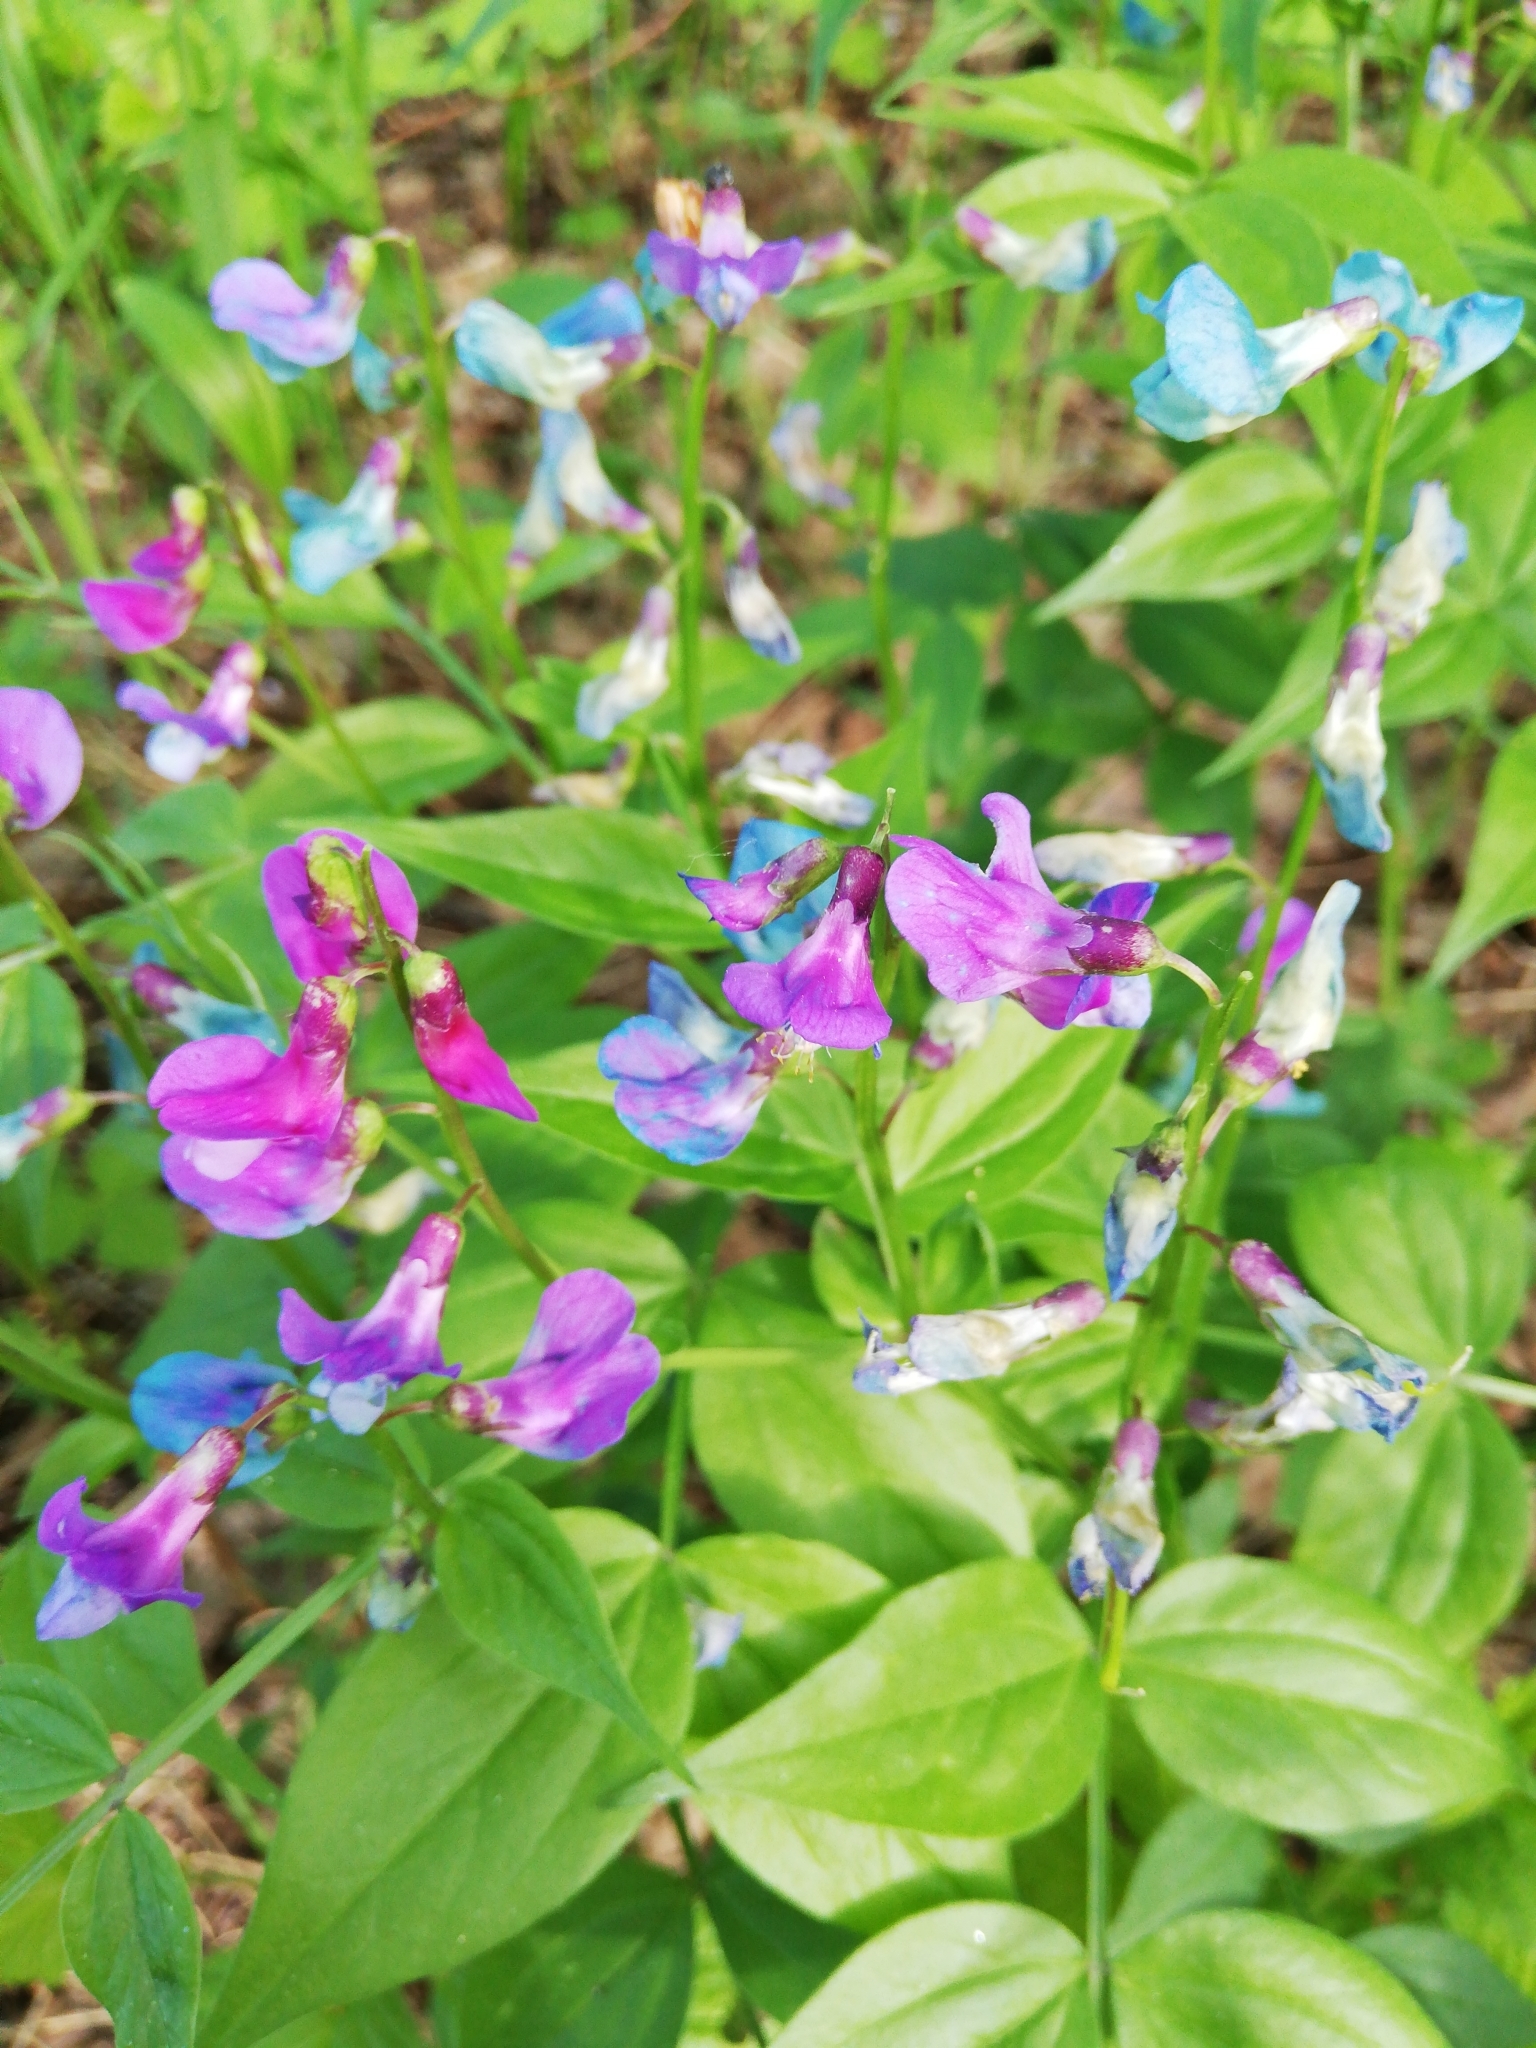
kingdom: Plantae
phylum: Tracheophyta
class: Magnoliopsida
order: Fabales
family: Fabaceae
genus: Lathyrus
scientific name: Lathyrus vernus
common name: Spring pea
